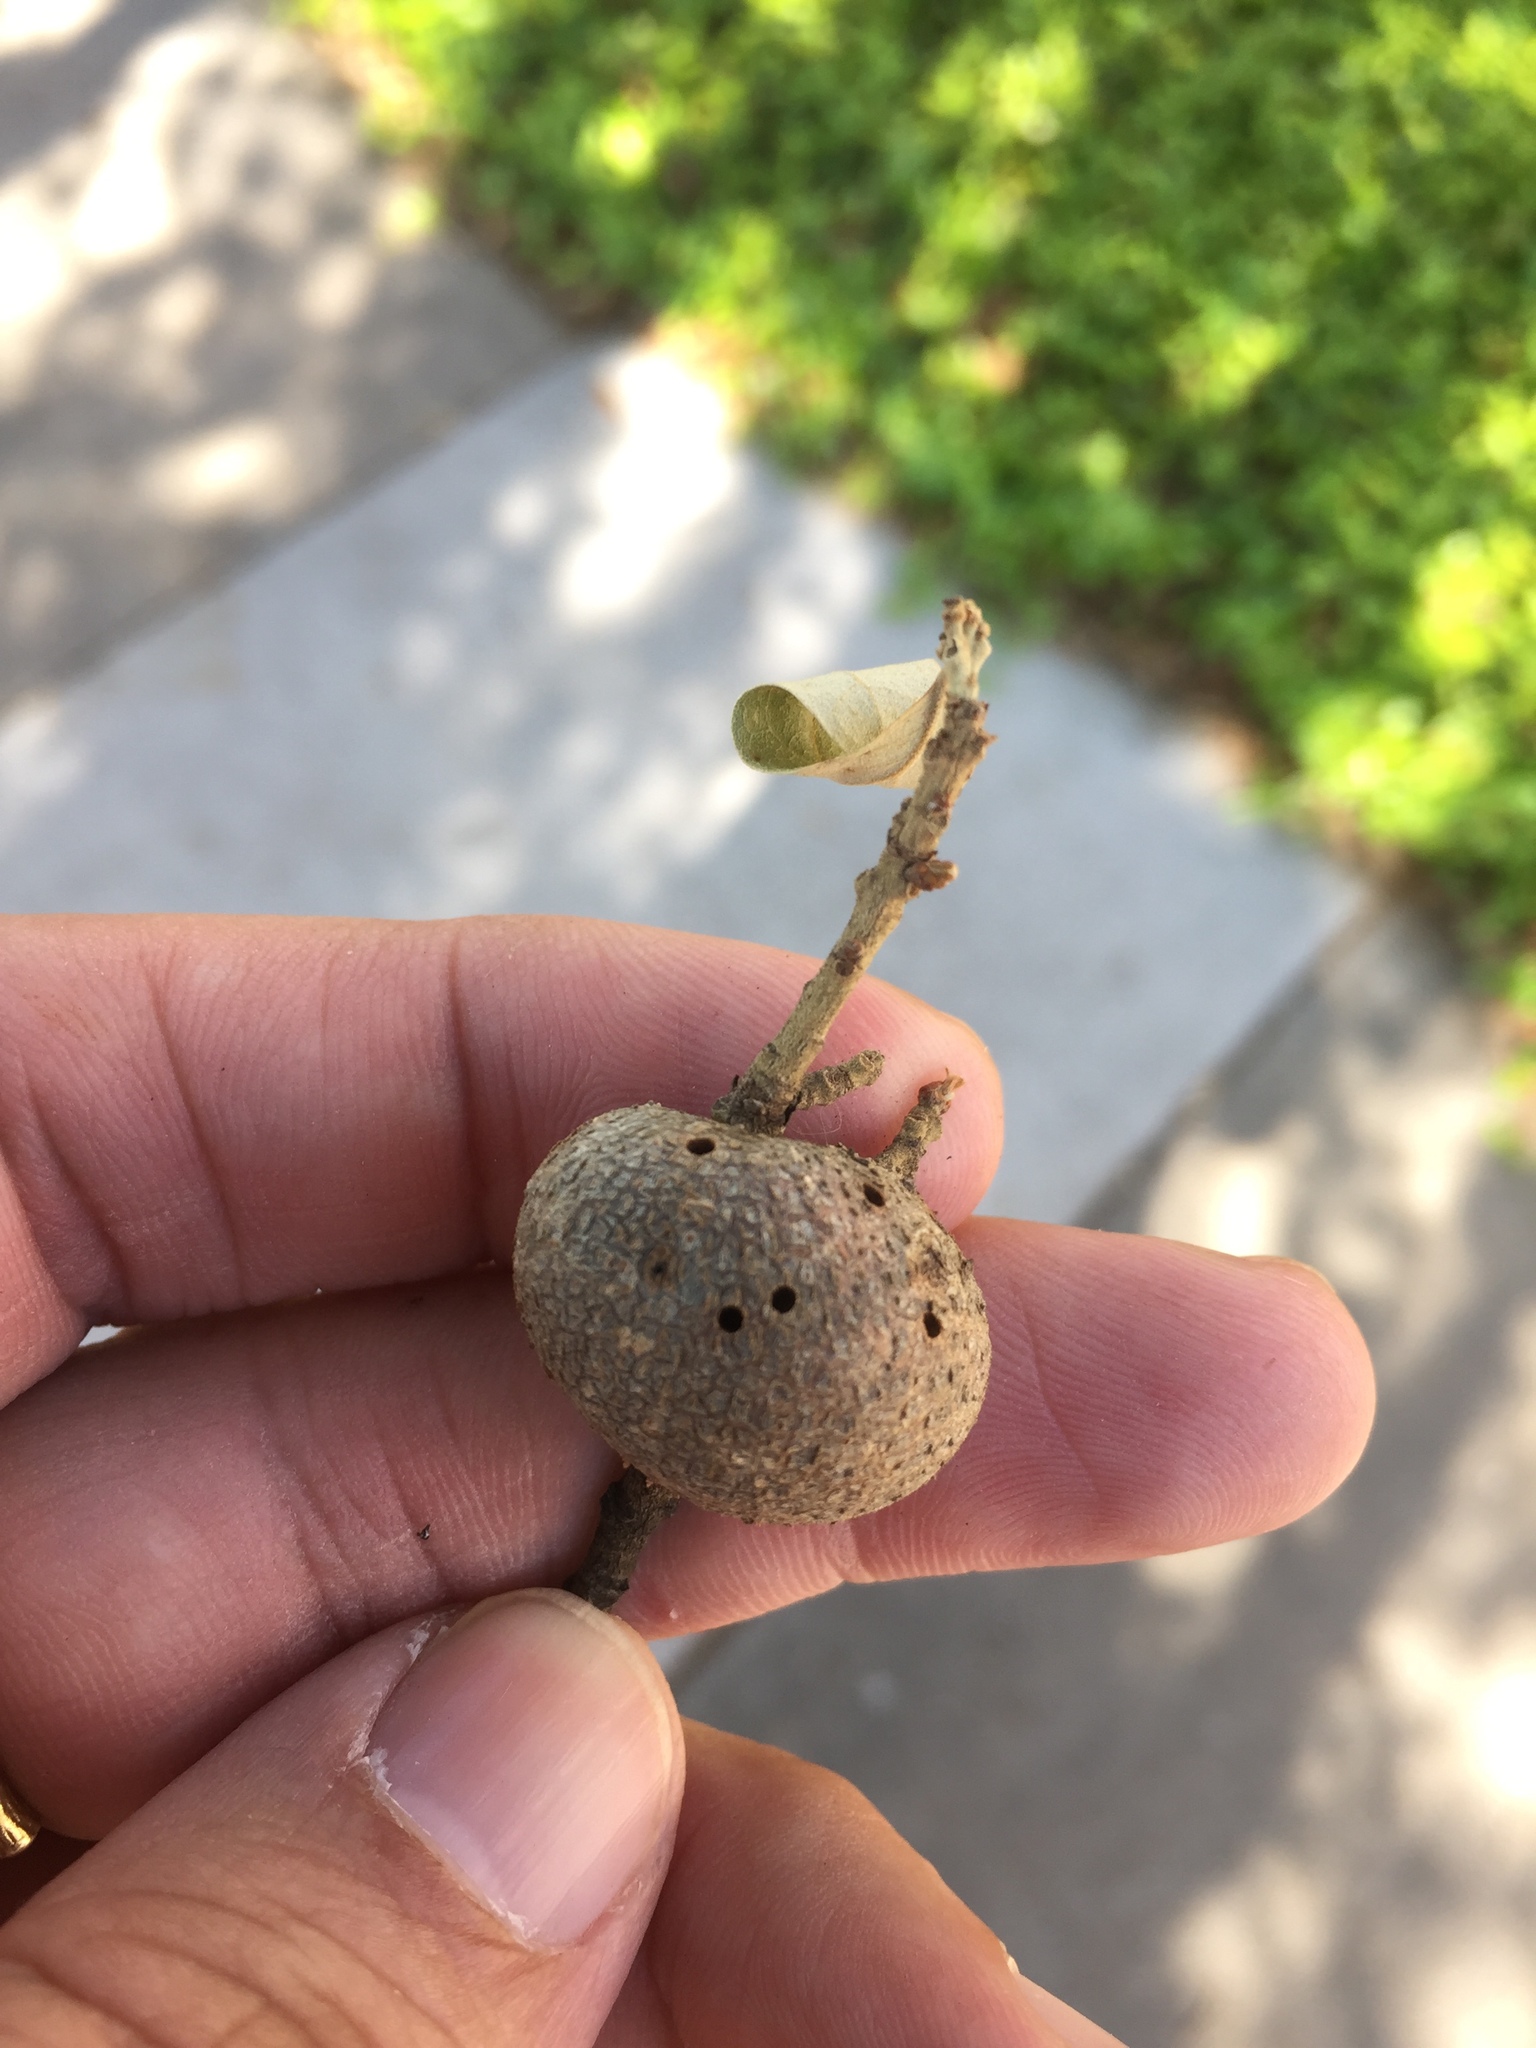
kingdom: Animalia
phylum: Arthropoda
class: Insecta
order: Hymenoptera
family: Cynipidae
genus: Callirhytis
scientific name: Callirhytis
